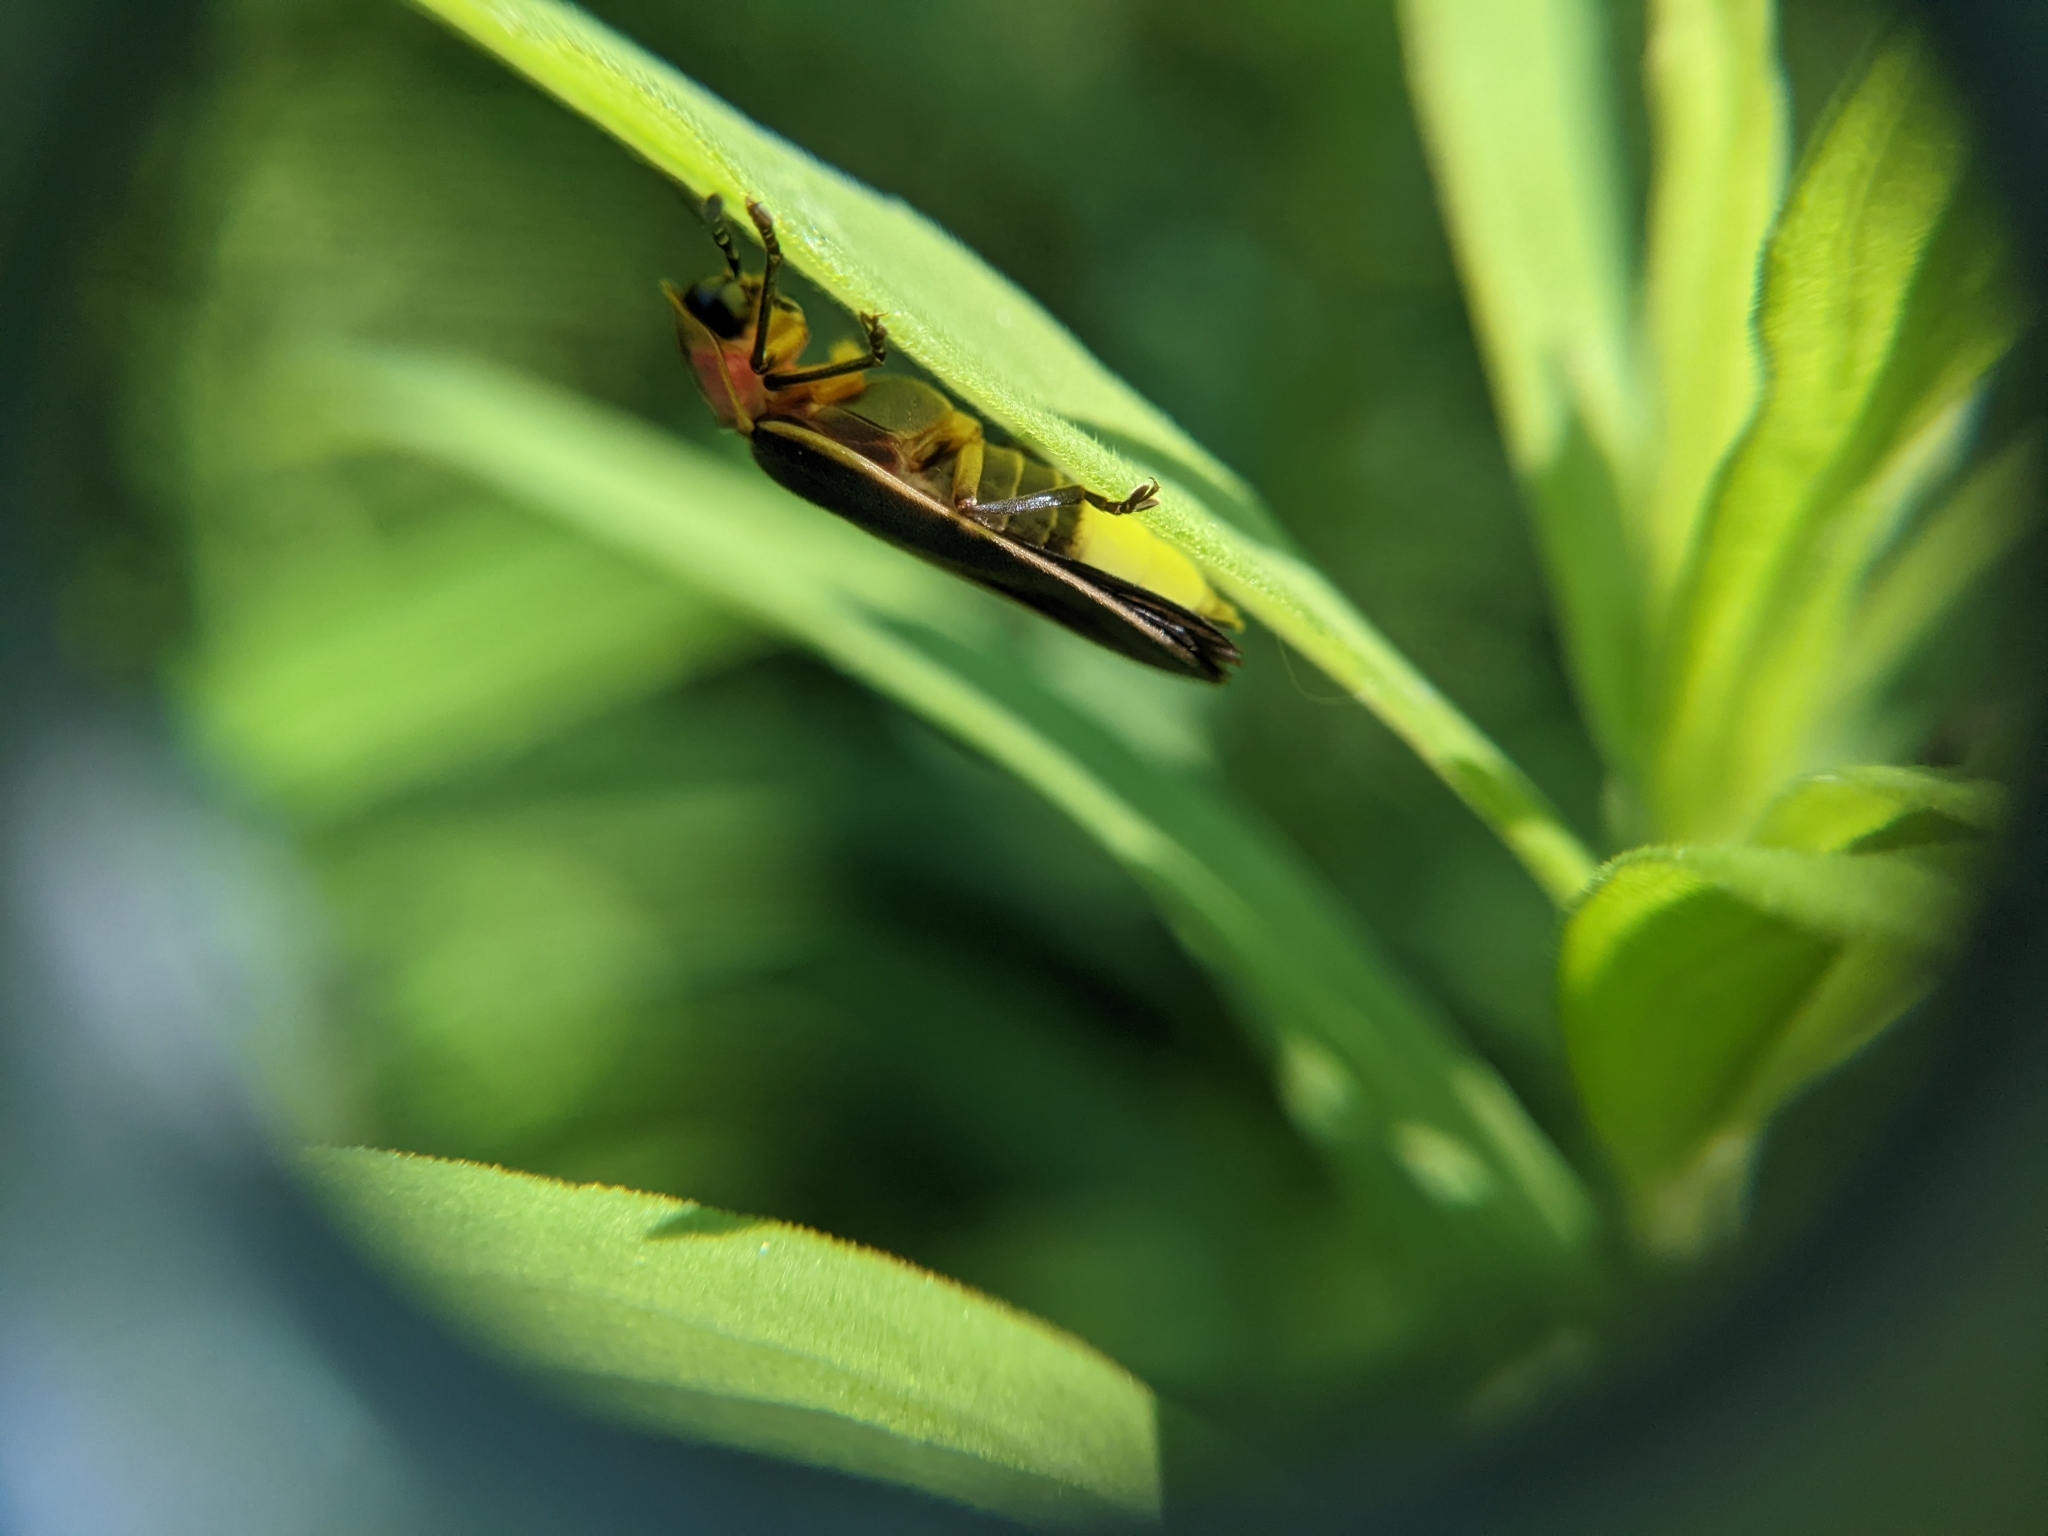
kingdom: Animalia
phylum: Arthropoda
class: Insecta
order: Coleoptera
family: Lampyridae
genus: Photinus
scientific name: Photinus pyralis
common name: Big dipper firefly
